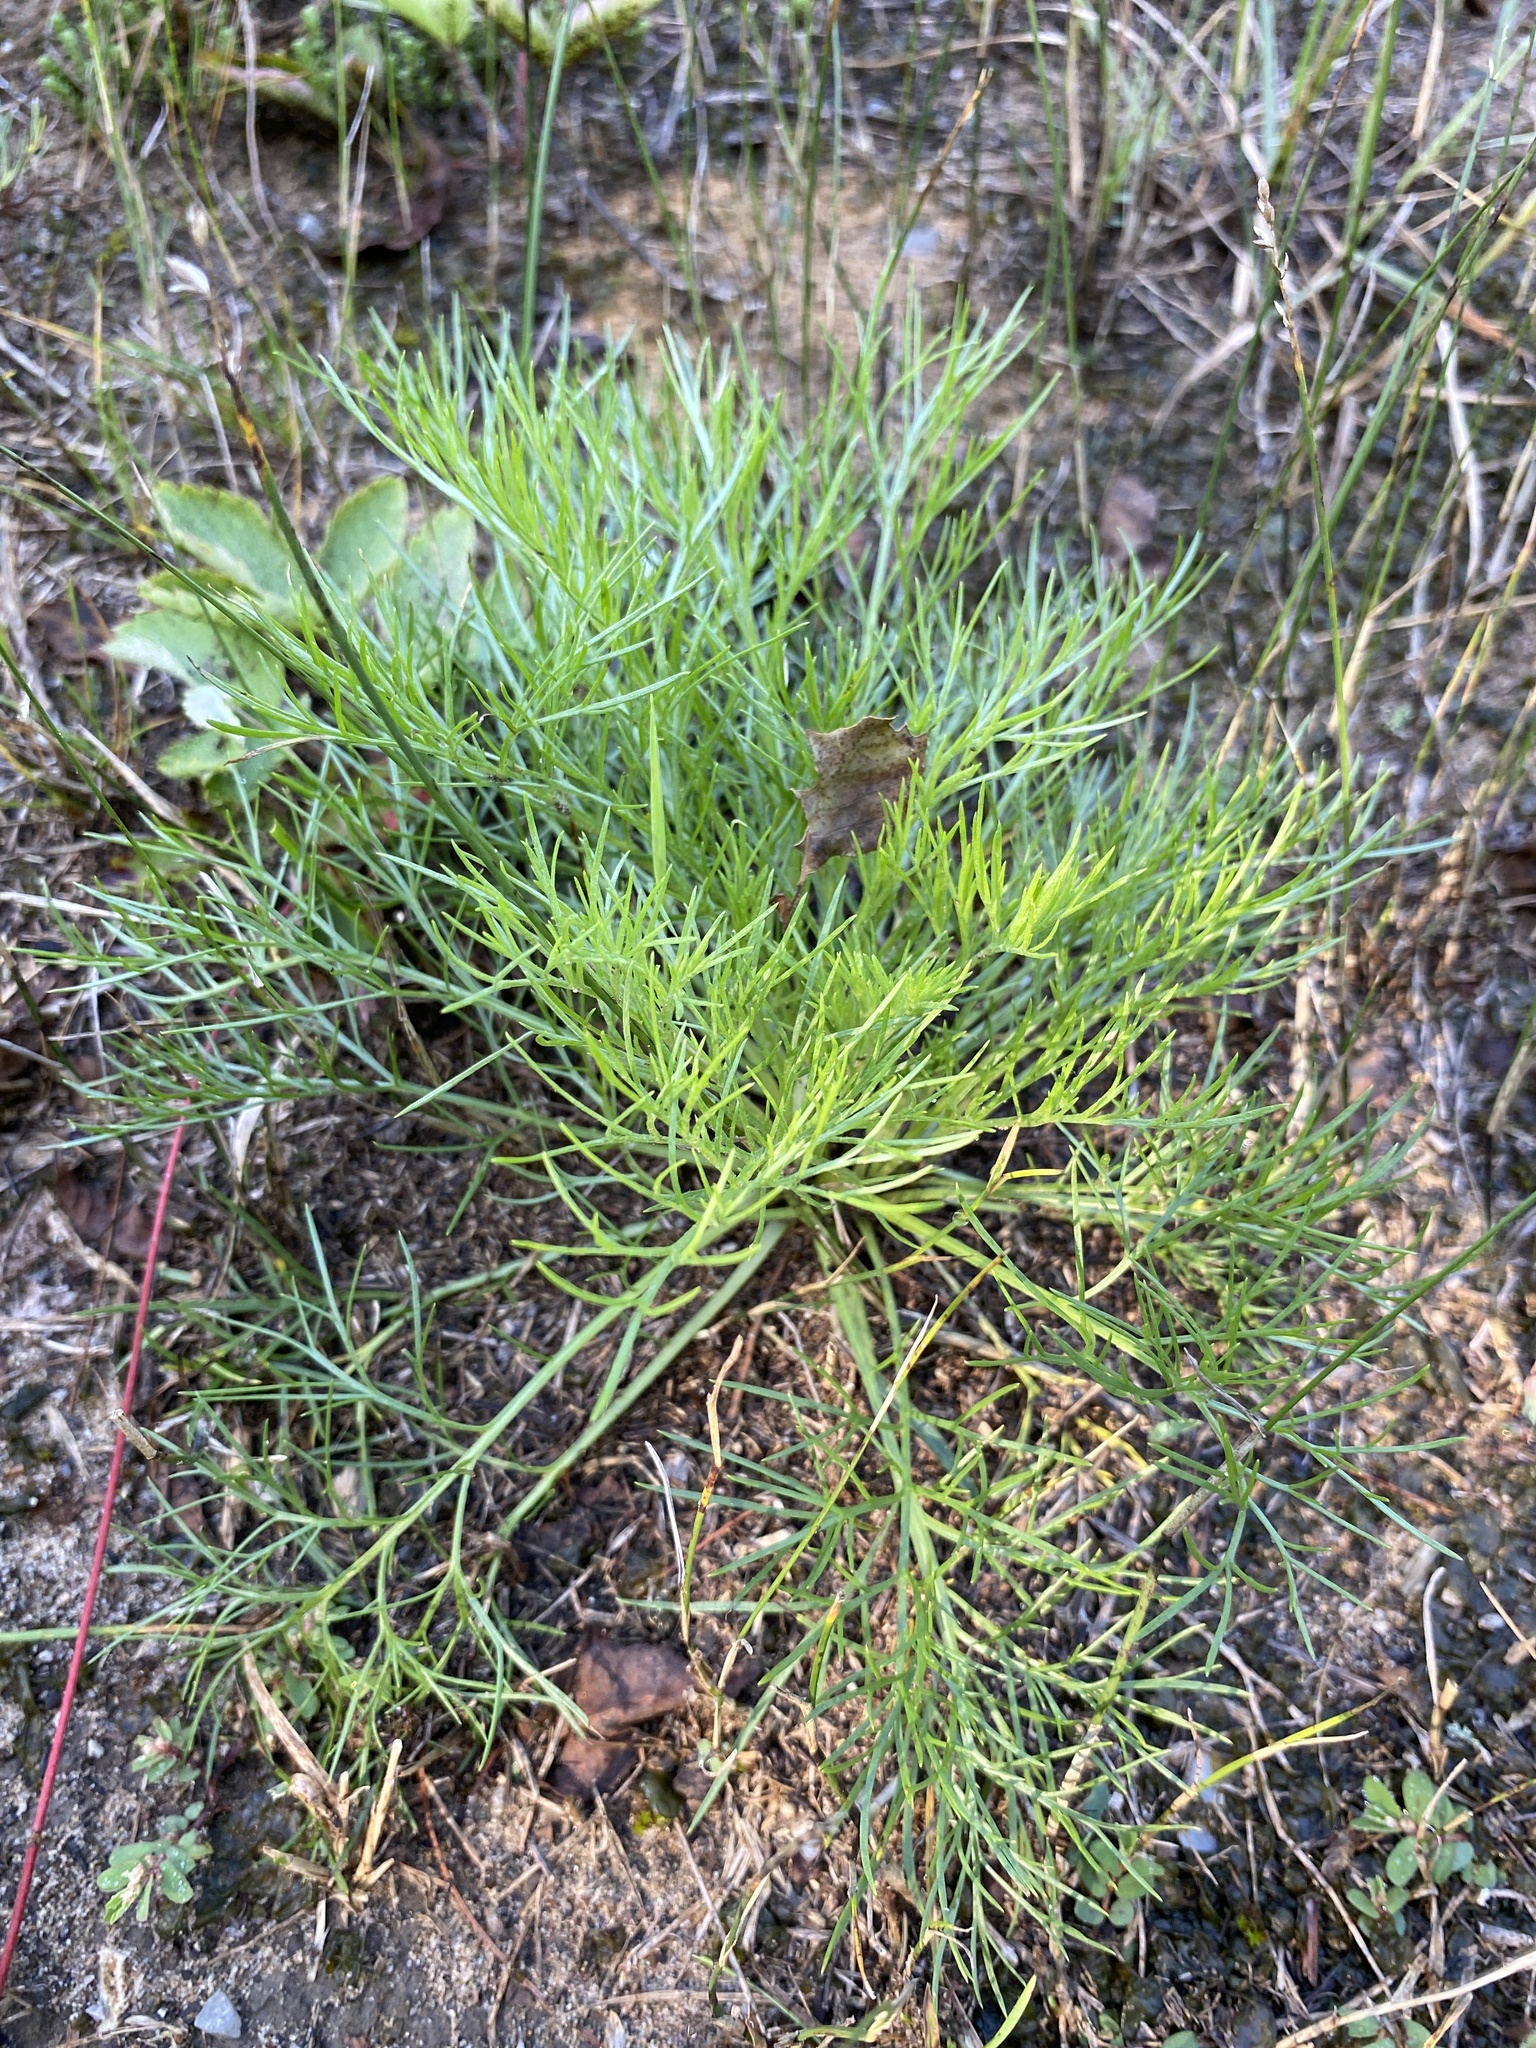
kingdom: Plantae
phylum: Tracheophyta
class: Magnoliopsida
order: Asterales
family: Asteraceae
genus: Artemisia
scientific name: Artemisia campestris
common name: Field wormwood
